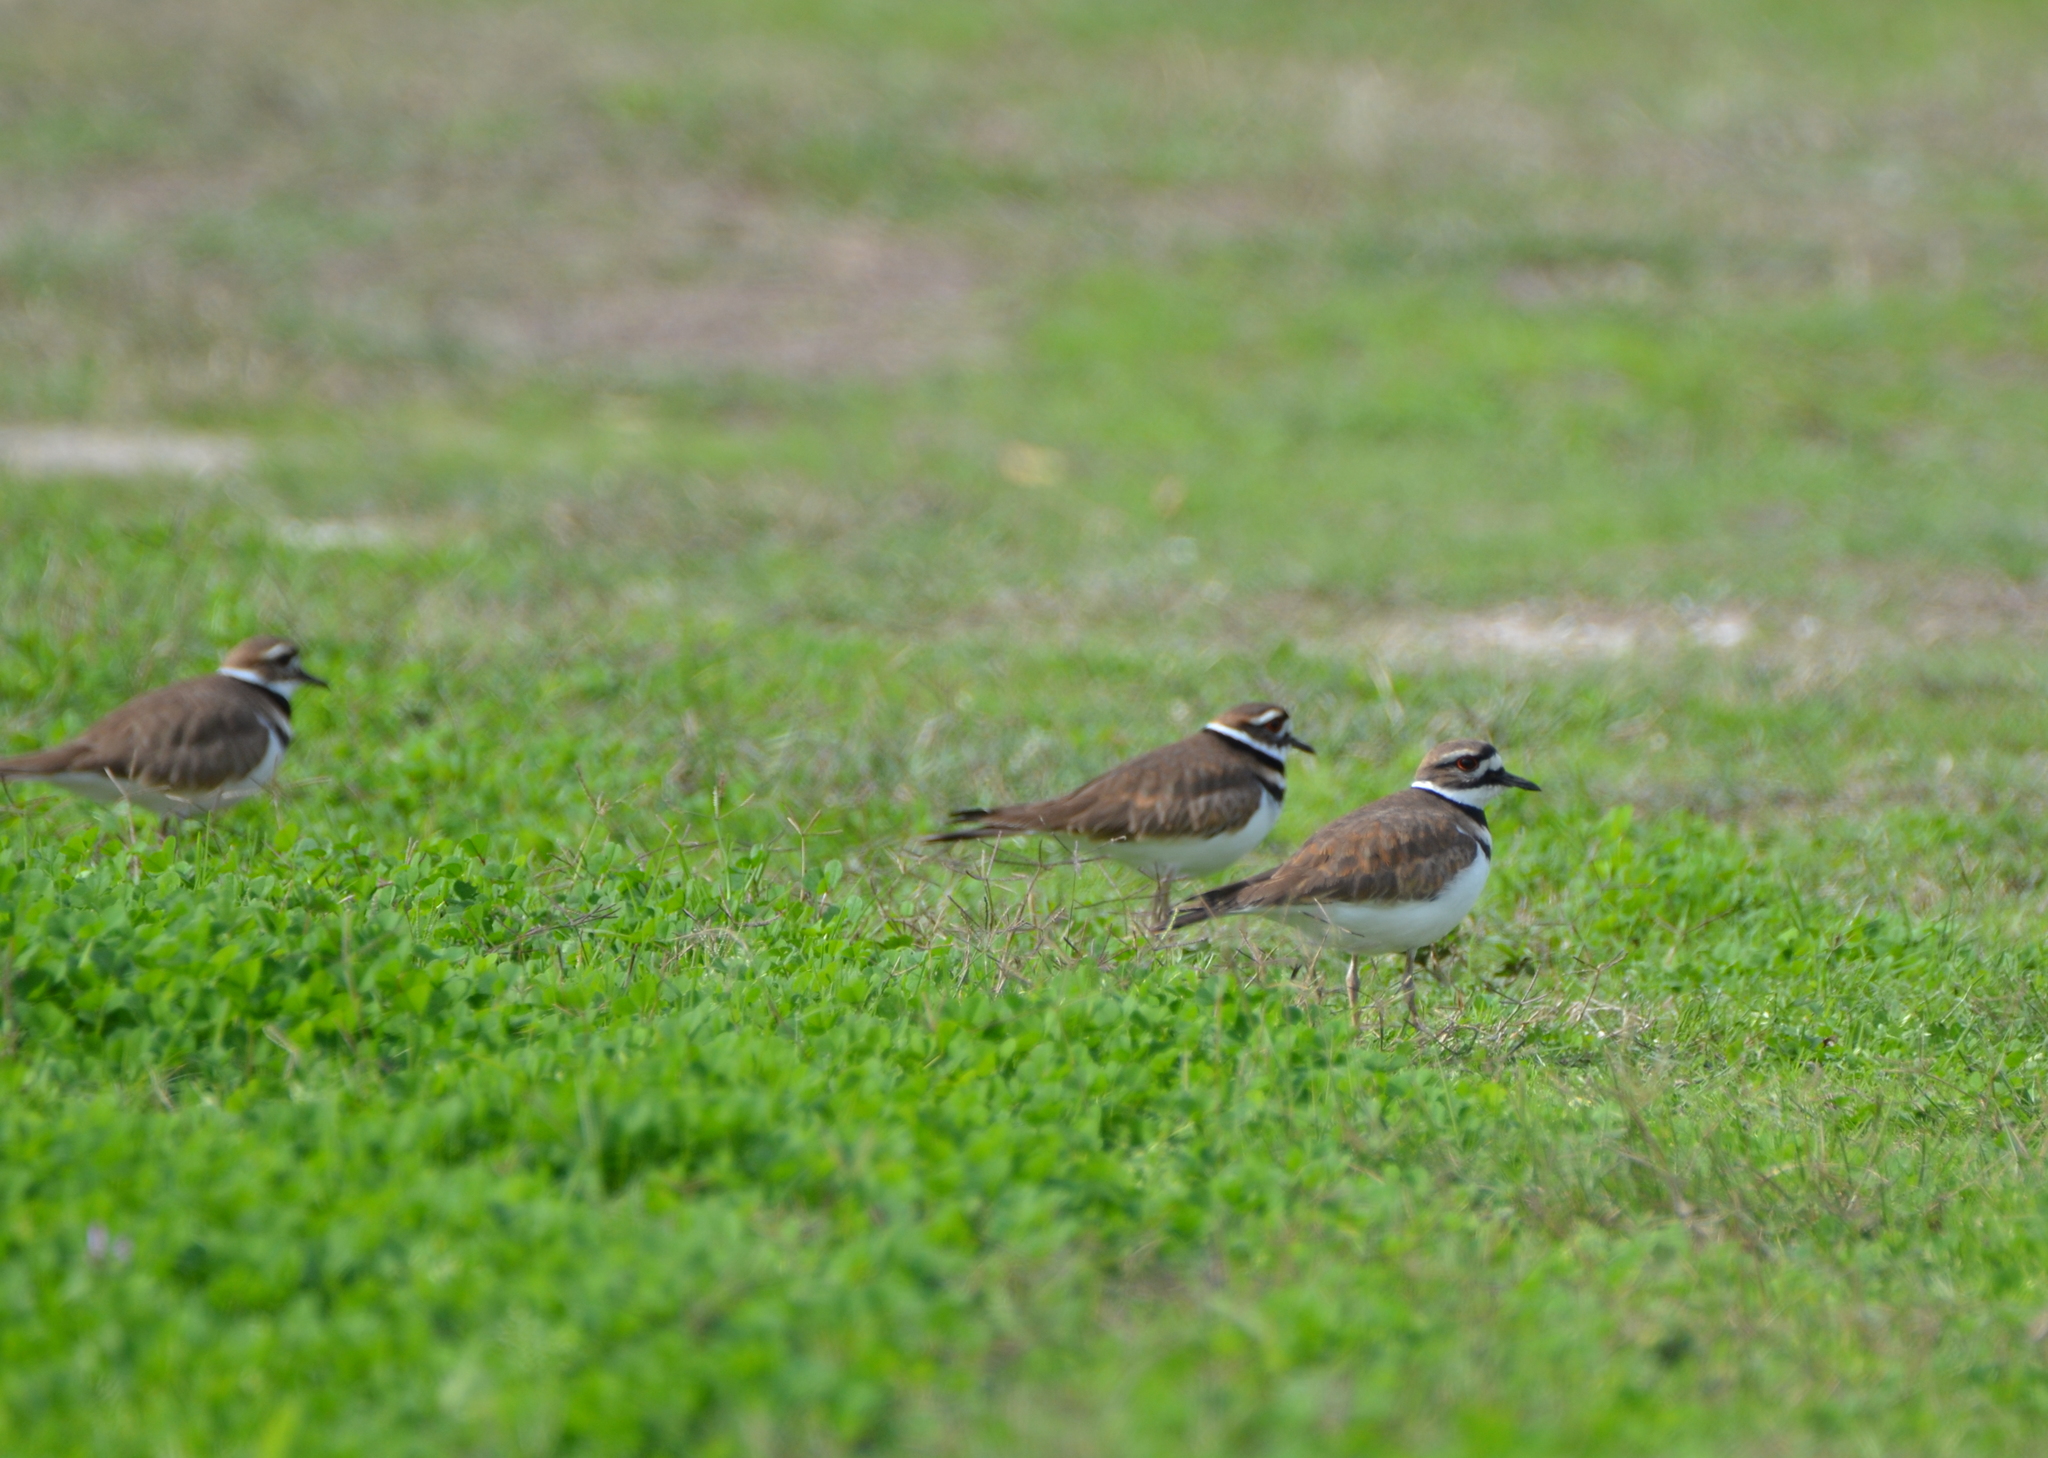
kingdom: Animalia
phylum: Chordata
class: Aves
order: Charadriiformes
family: Charadriidae
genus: Charadrius
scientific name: Charadrius vociferus
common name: Killdeer
